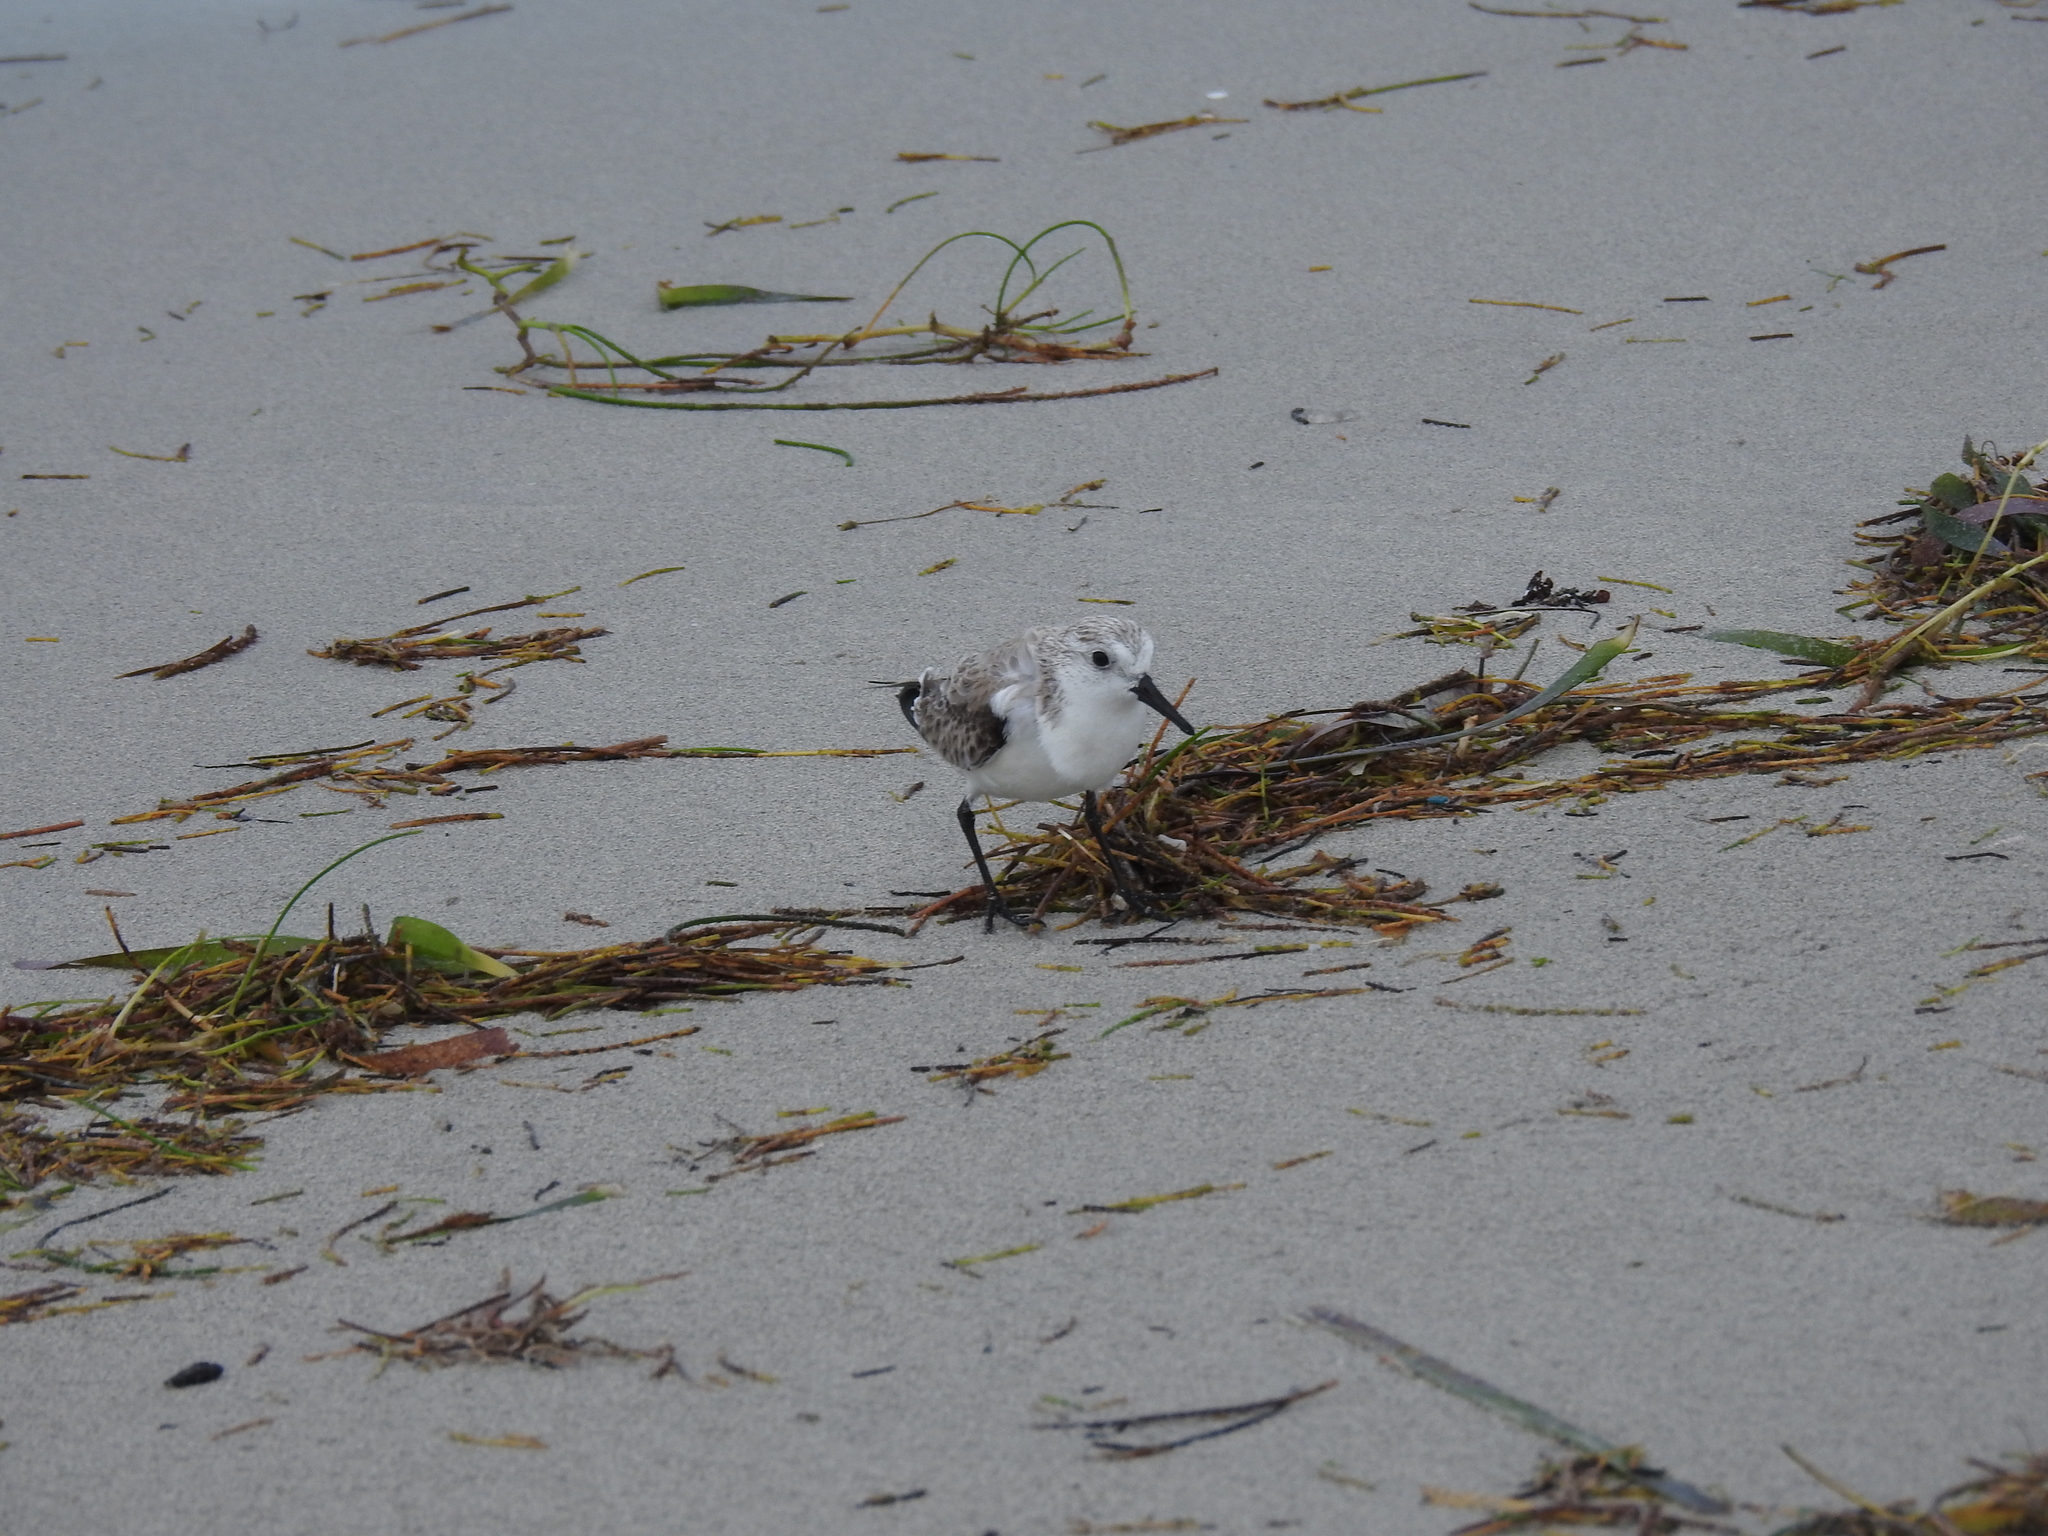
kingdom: Animalia
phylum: Chordata
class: Aves
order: Charadriiformes
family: Scolopacidae
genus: Calidris
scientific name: Calidris alba
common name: Sanderling
